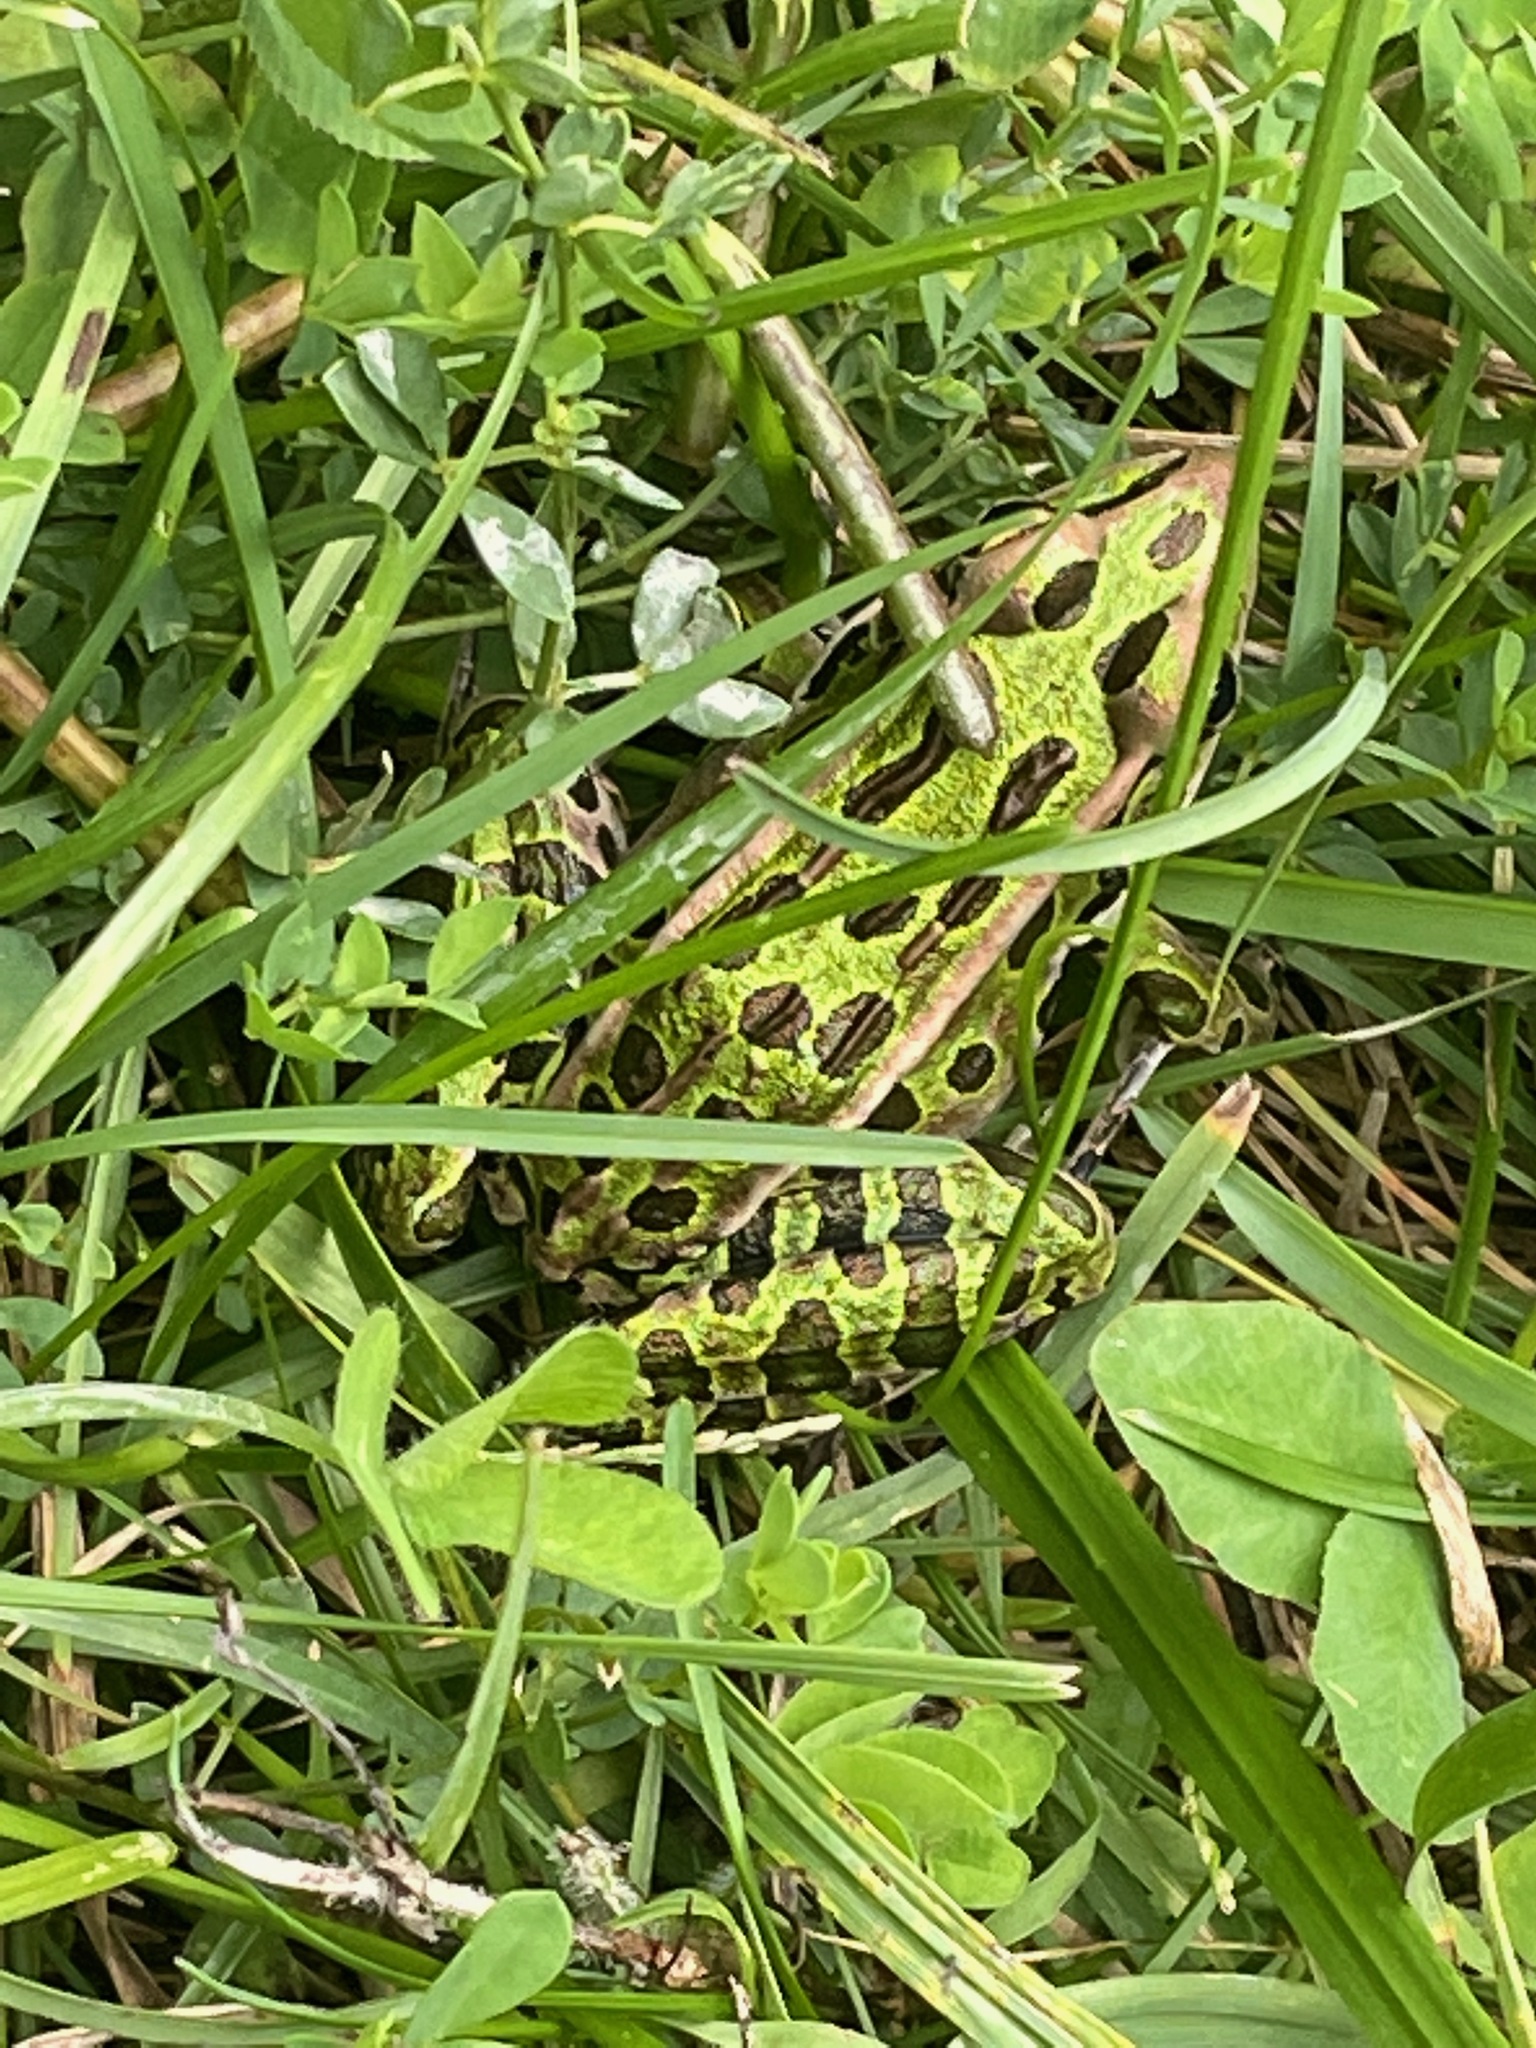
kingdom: Animalia
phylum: Chordata
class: Amphibia
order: Anura
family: Ranidae
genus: Lithobates
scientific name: Lithobates pipiens
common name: Northern leopard frog
